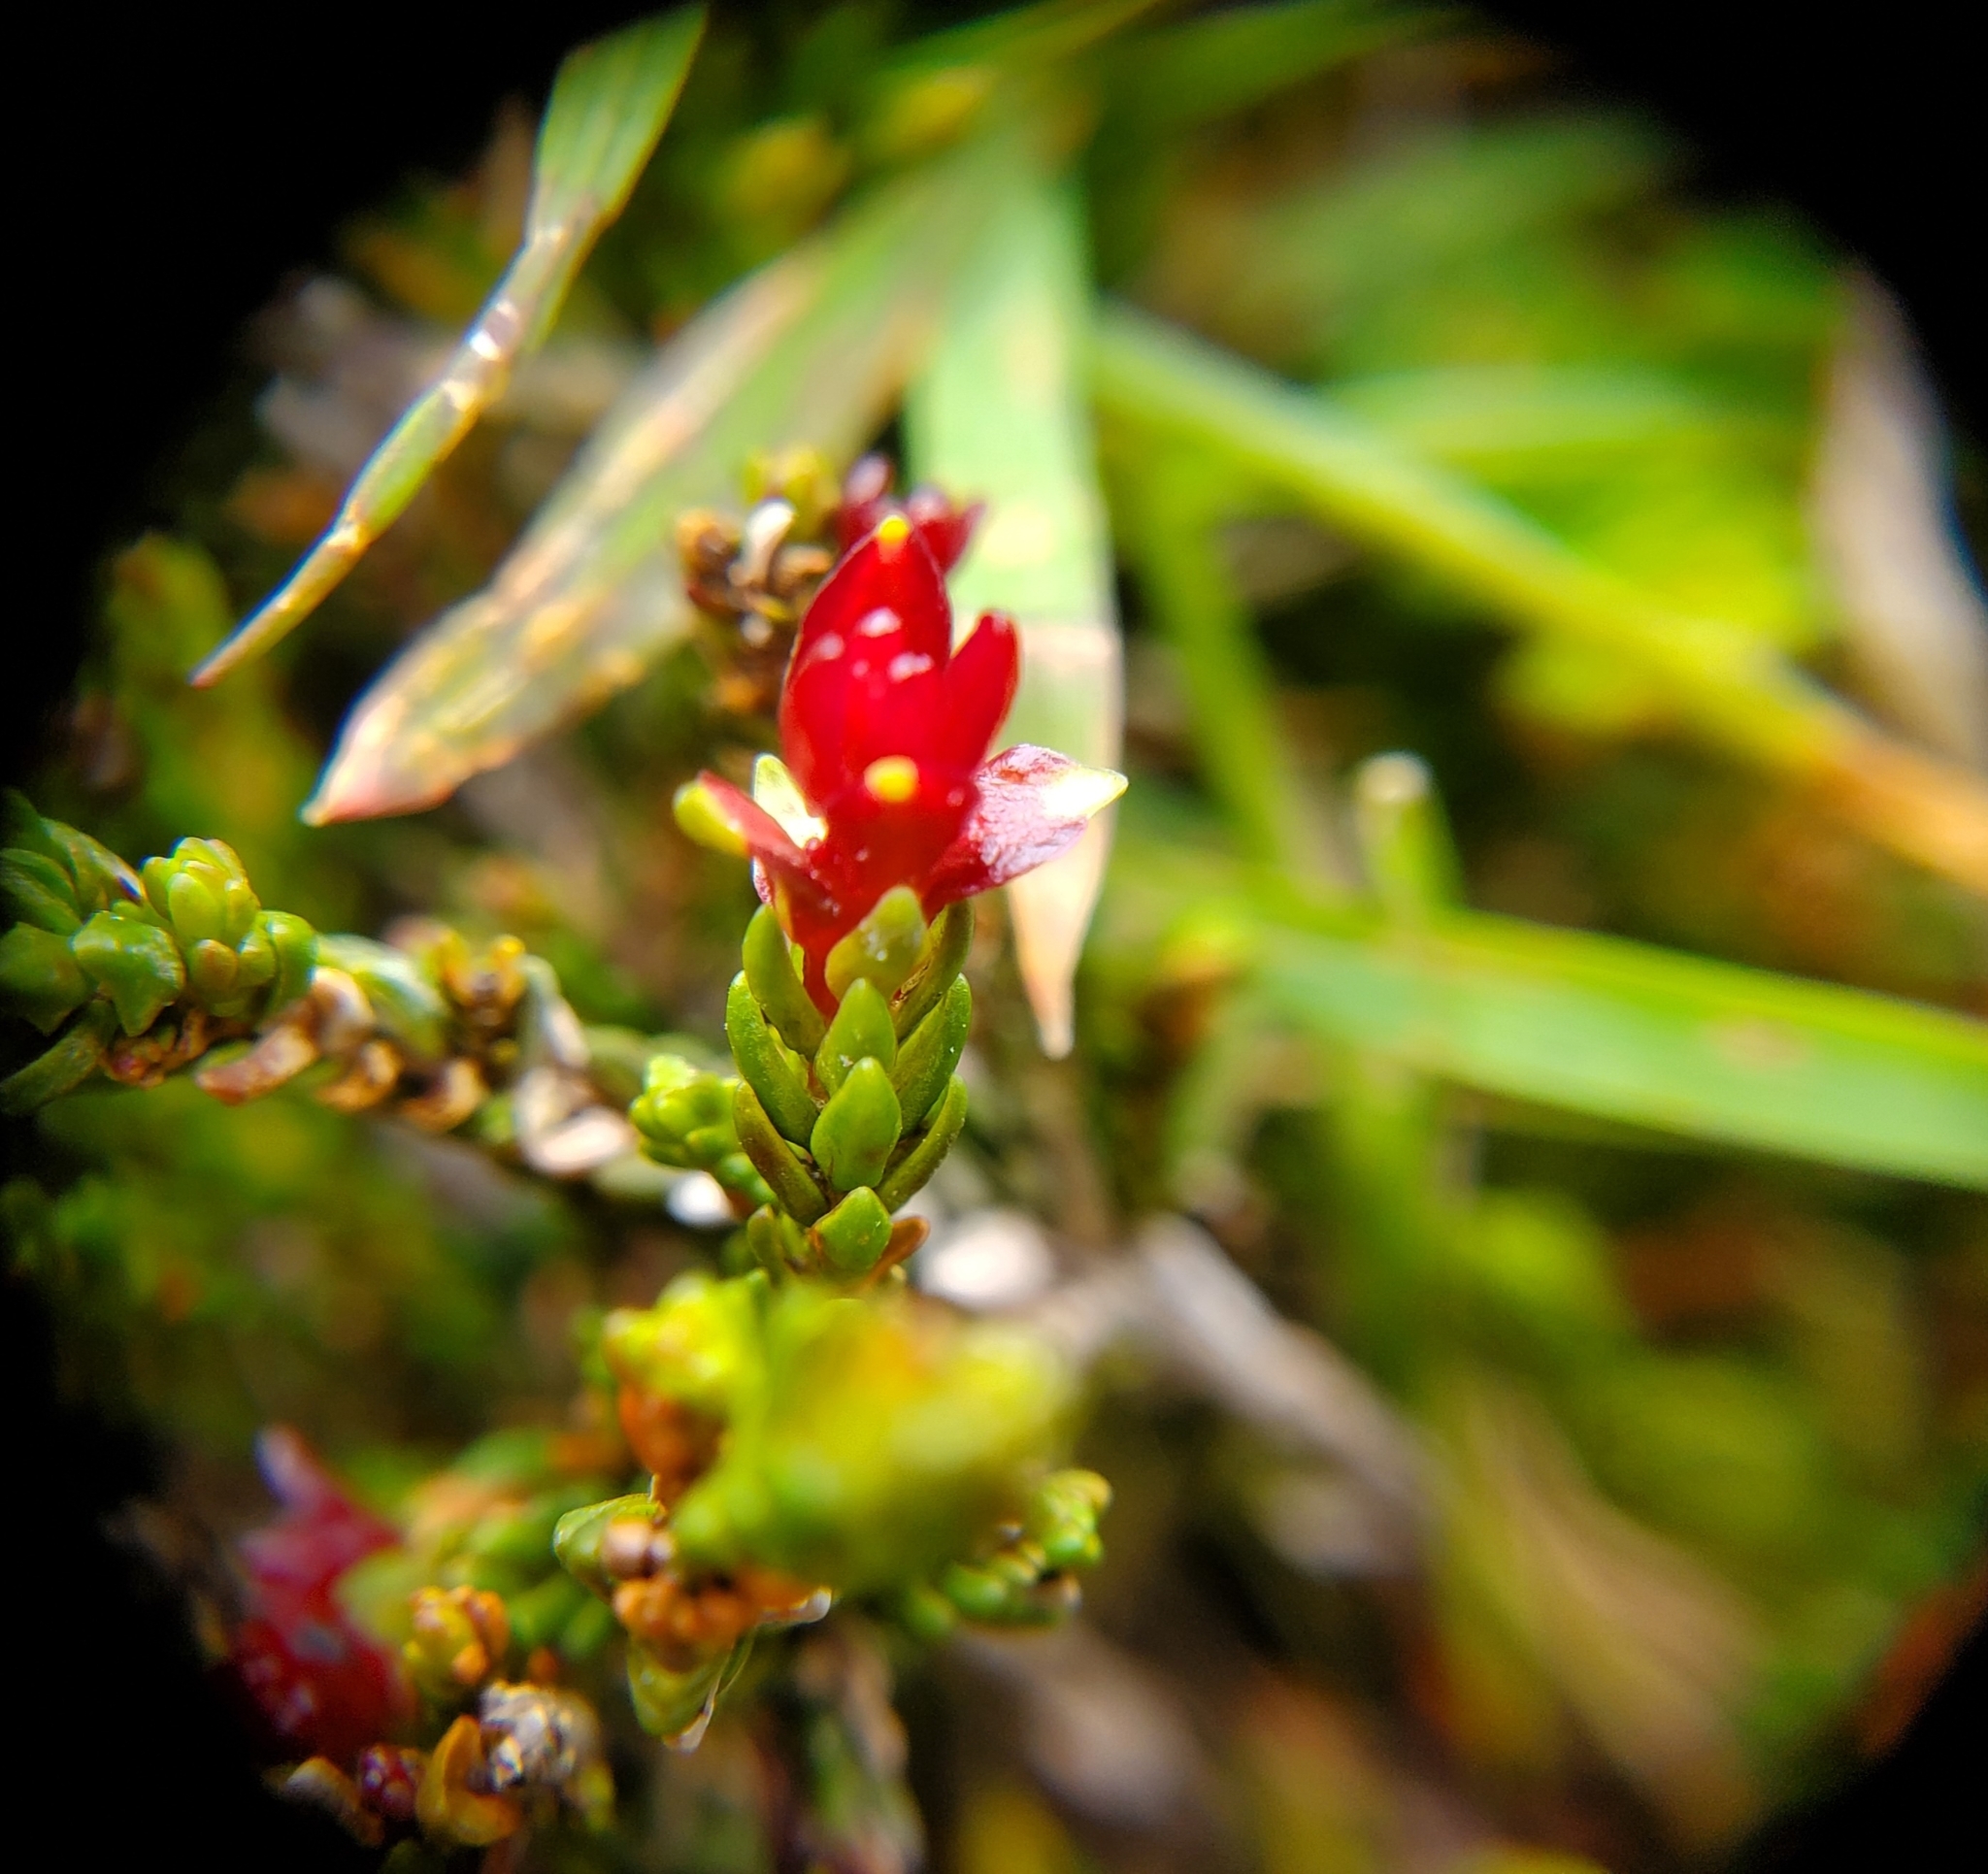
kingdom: Plantae
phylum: Tracheophyta
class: Magnoliopsida
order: Ericales
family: Ericaceae
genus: Cassiope
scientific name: Cassiope mertensiana
